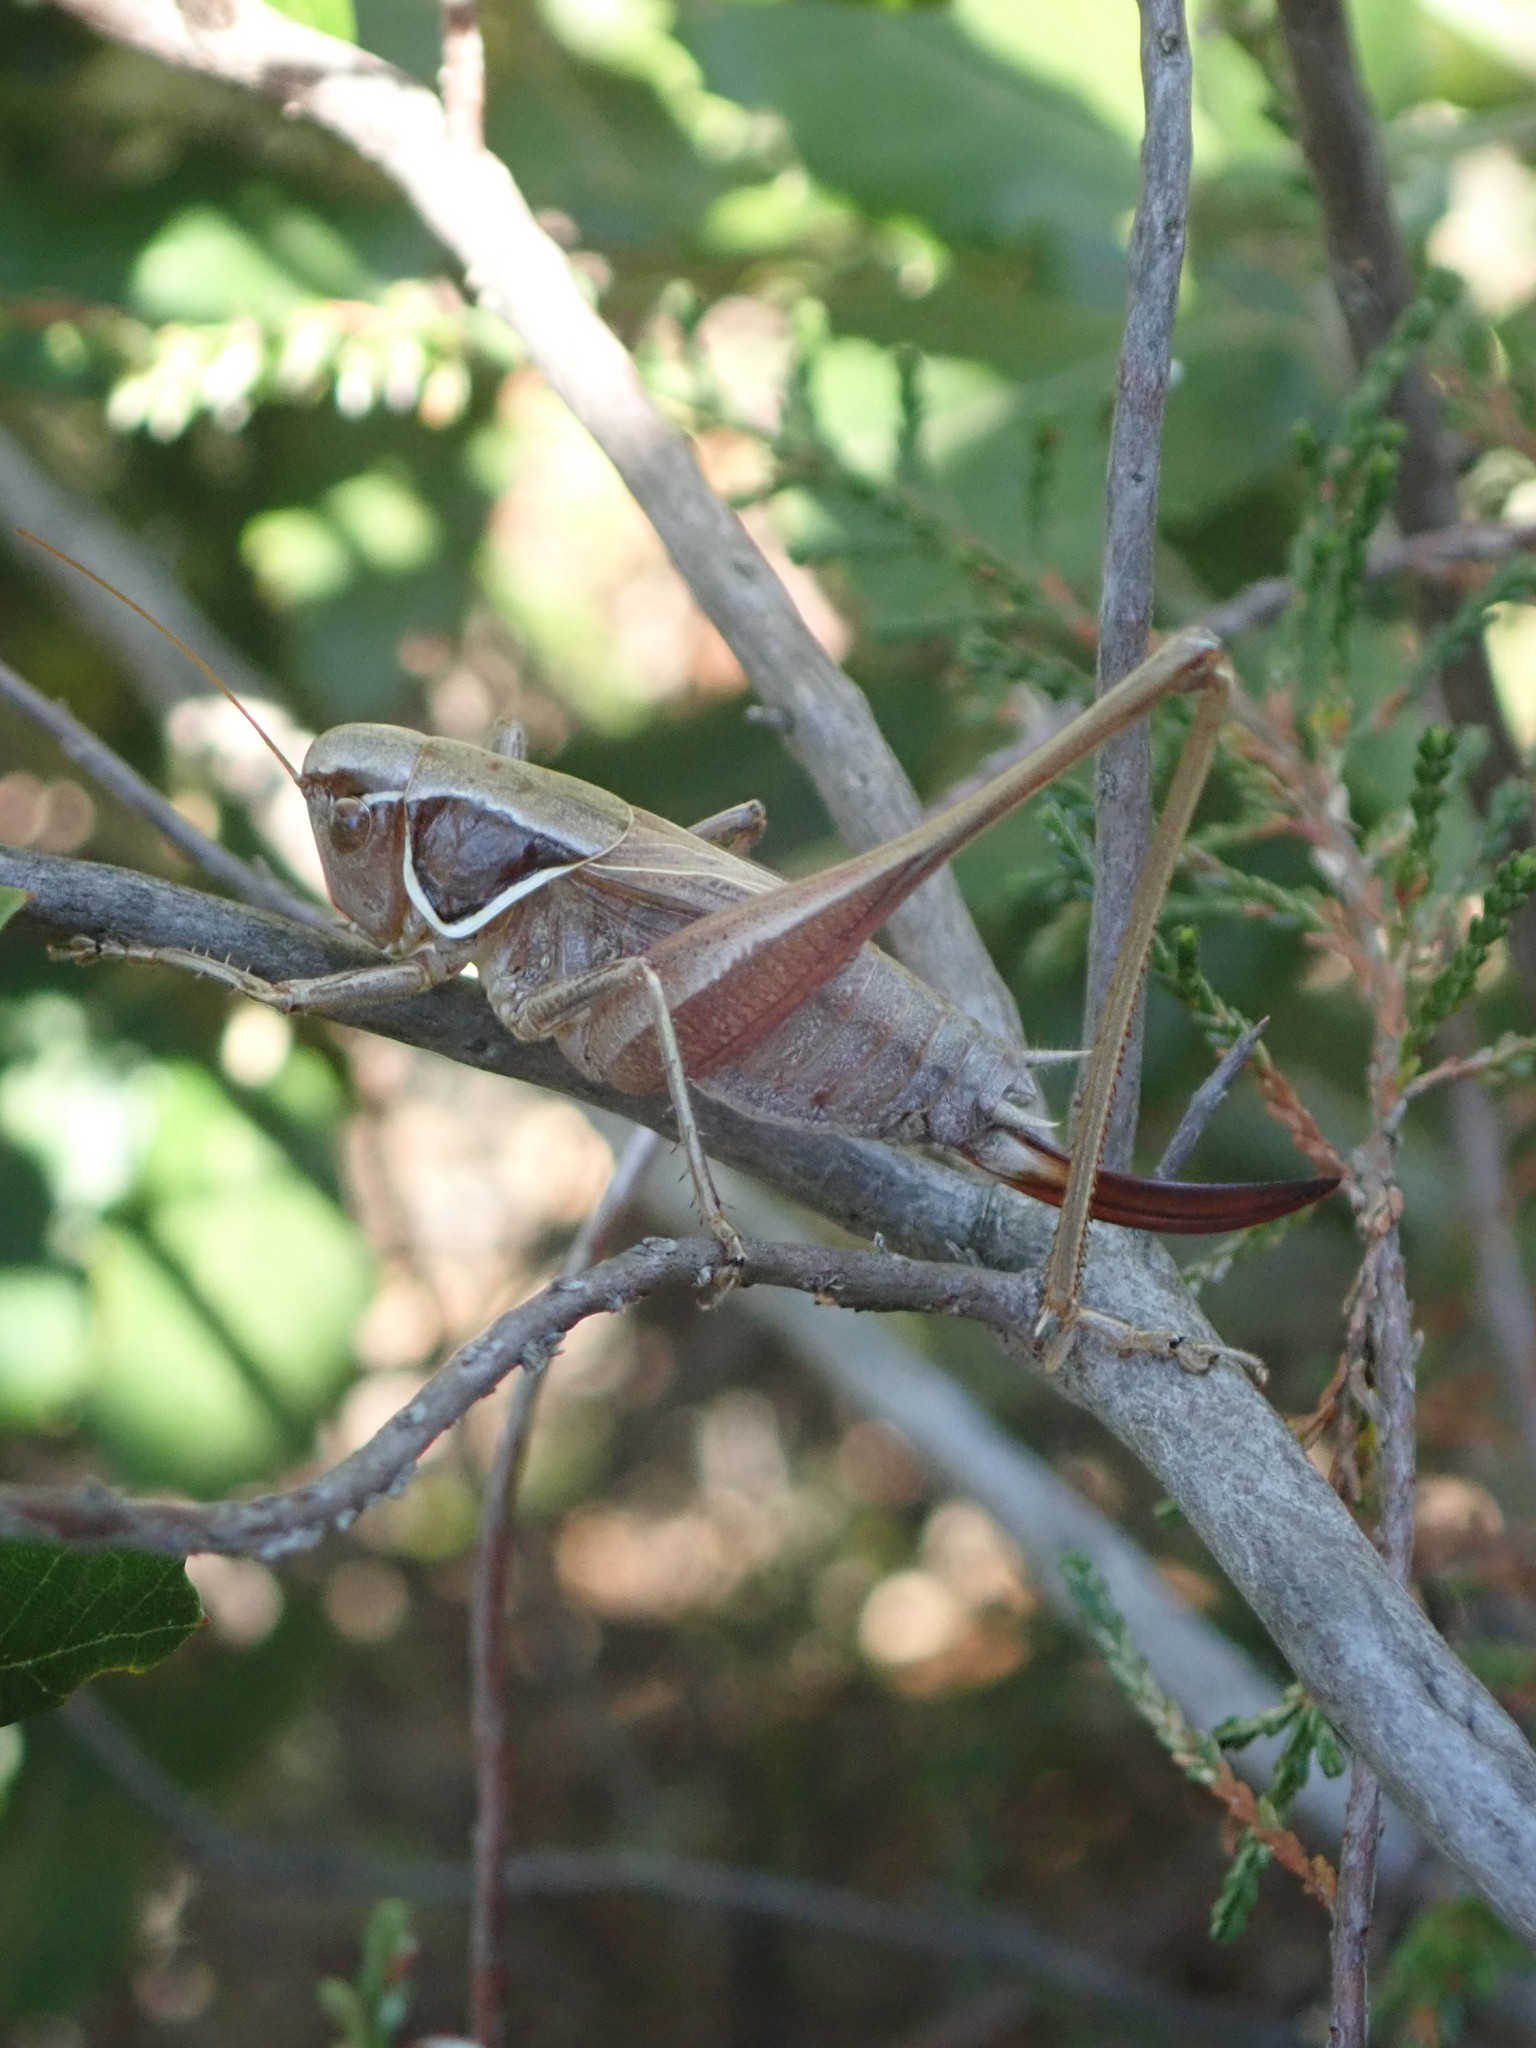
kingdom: Animalia
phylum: Arthropoda
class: Insecta
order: Orthoptera
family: Tettigoniidae
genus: Sepiana
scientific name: Sepiana sepium
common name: Sepia bush-cricket
